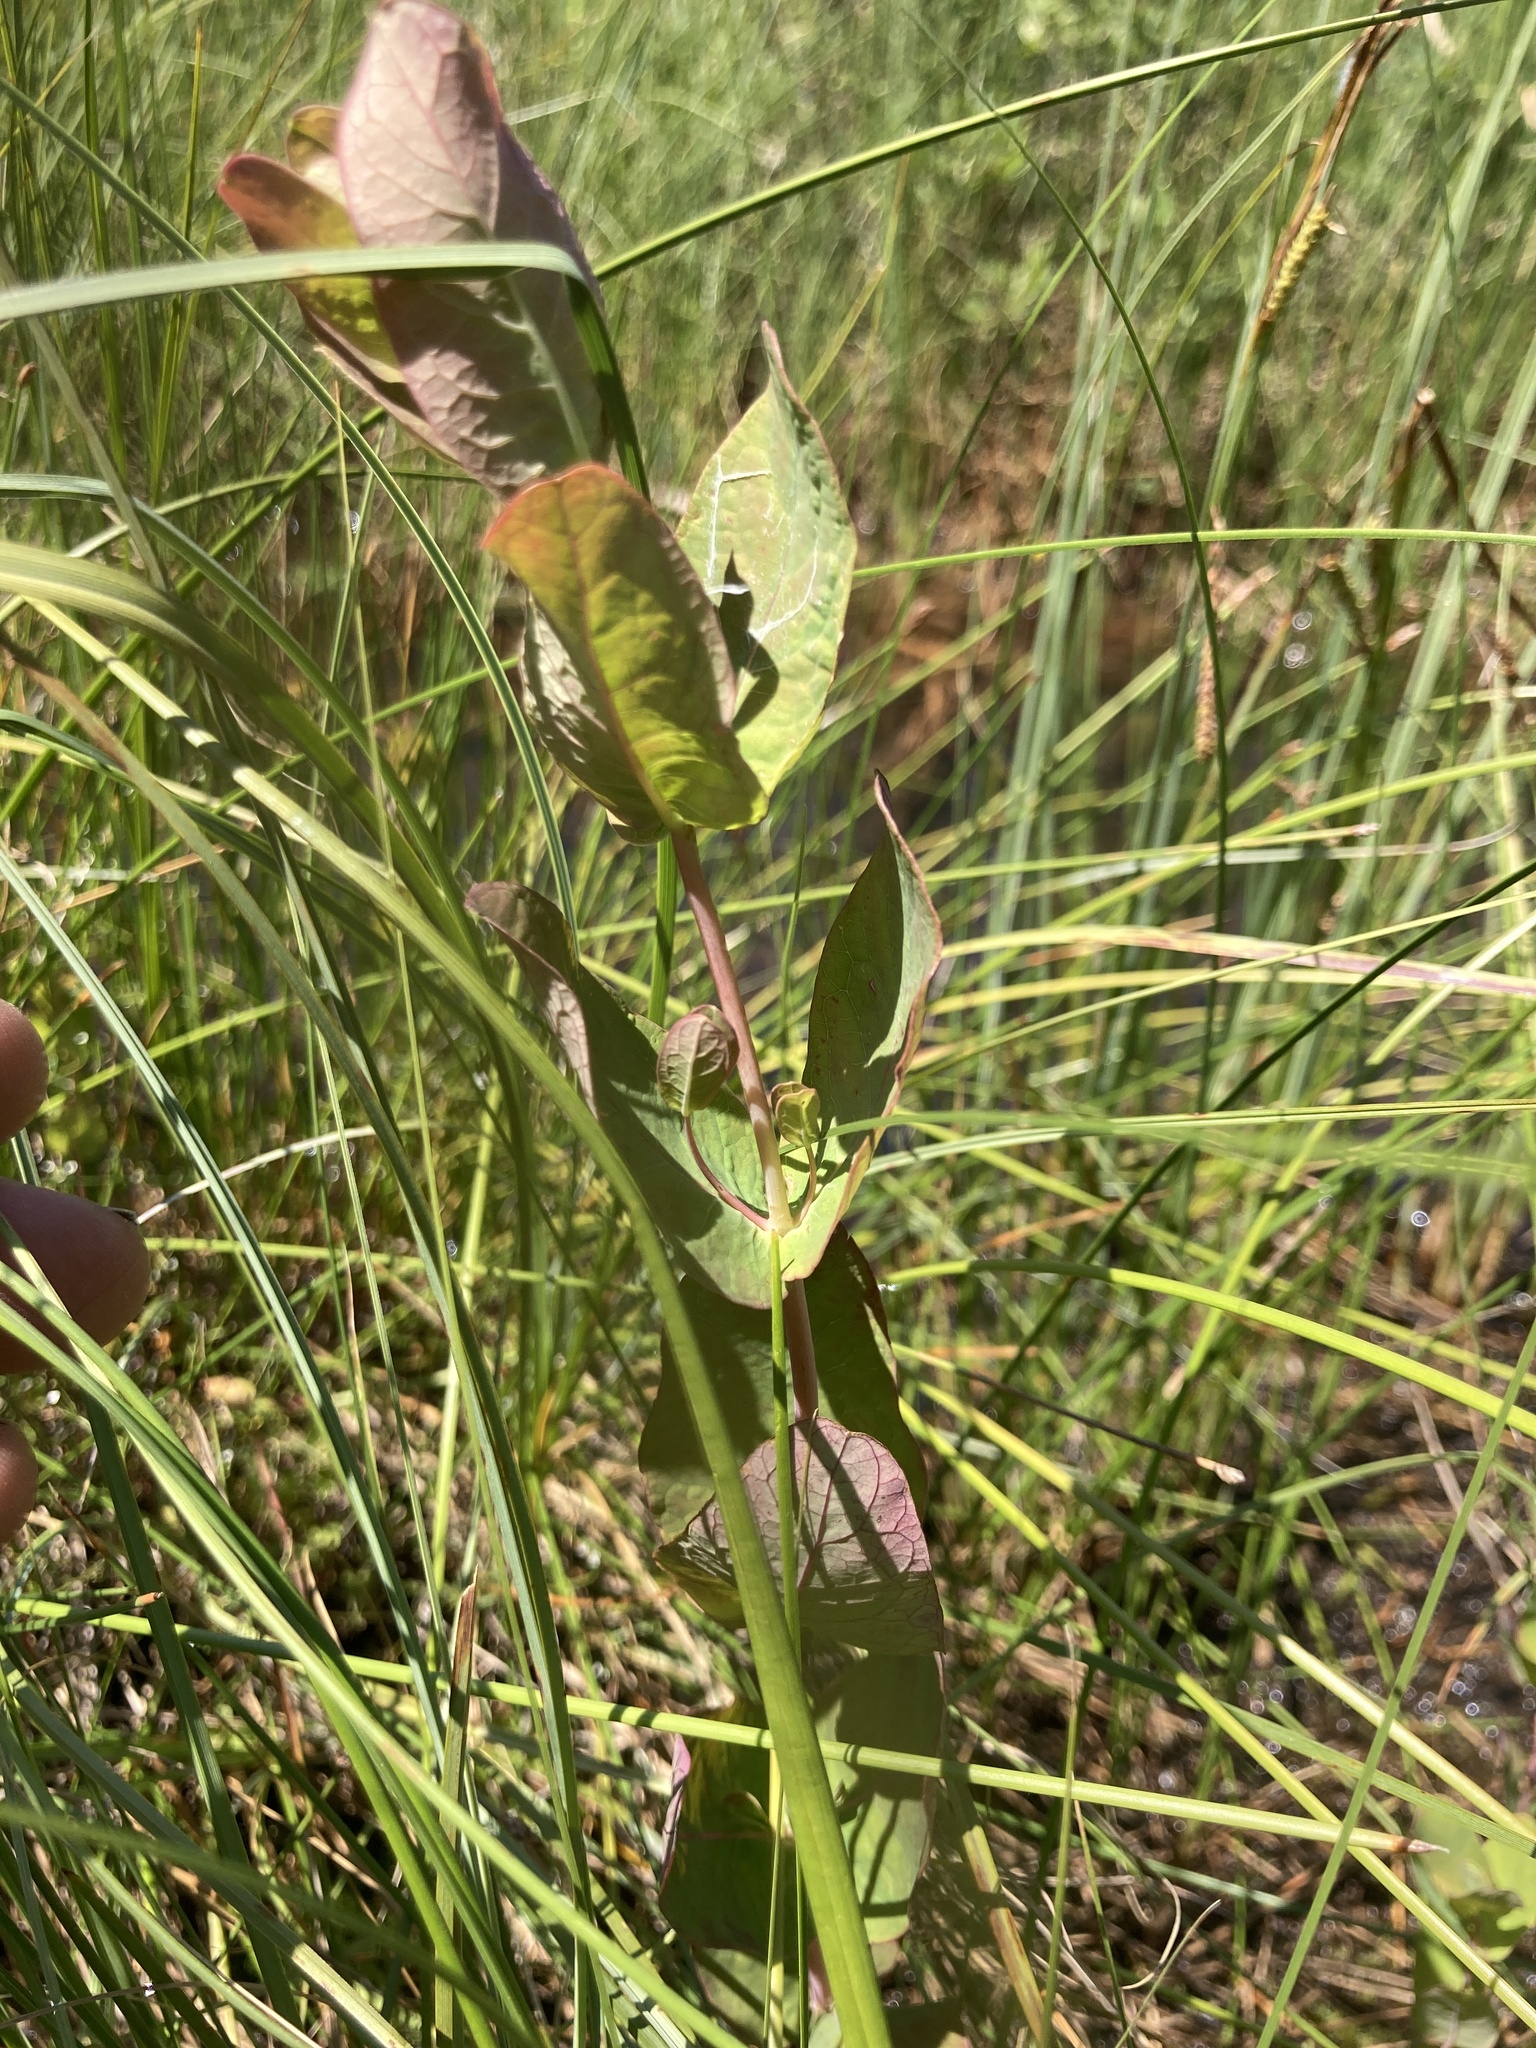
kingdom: Plantae
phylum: Tracheophyta
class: Magnoliopsida
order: Malpighiales
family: Hypericaceae
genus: Triadenum
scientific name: Triadenum fraseri
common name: Fraser's marsh st. johnswort
